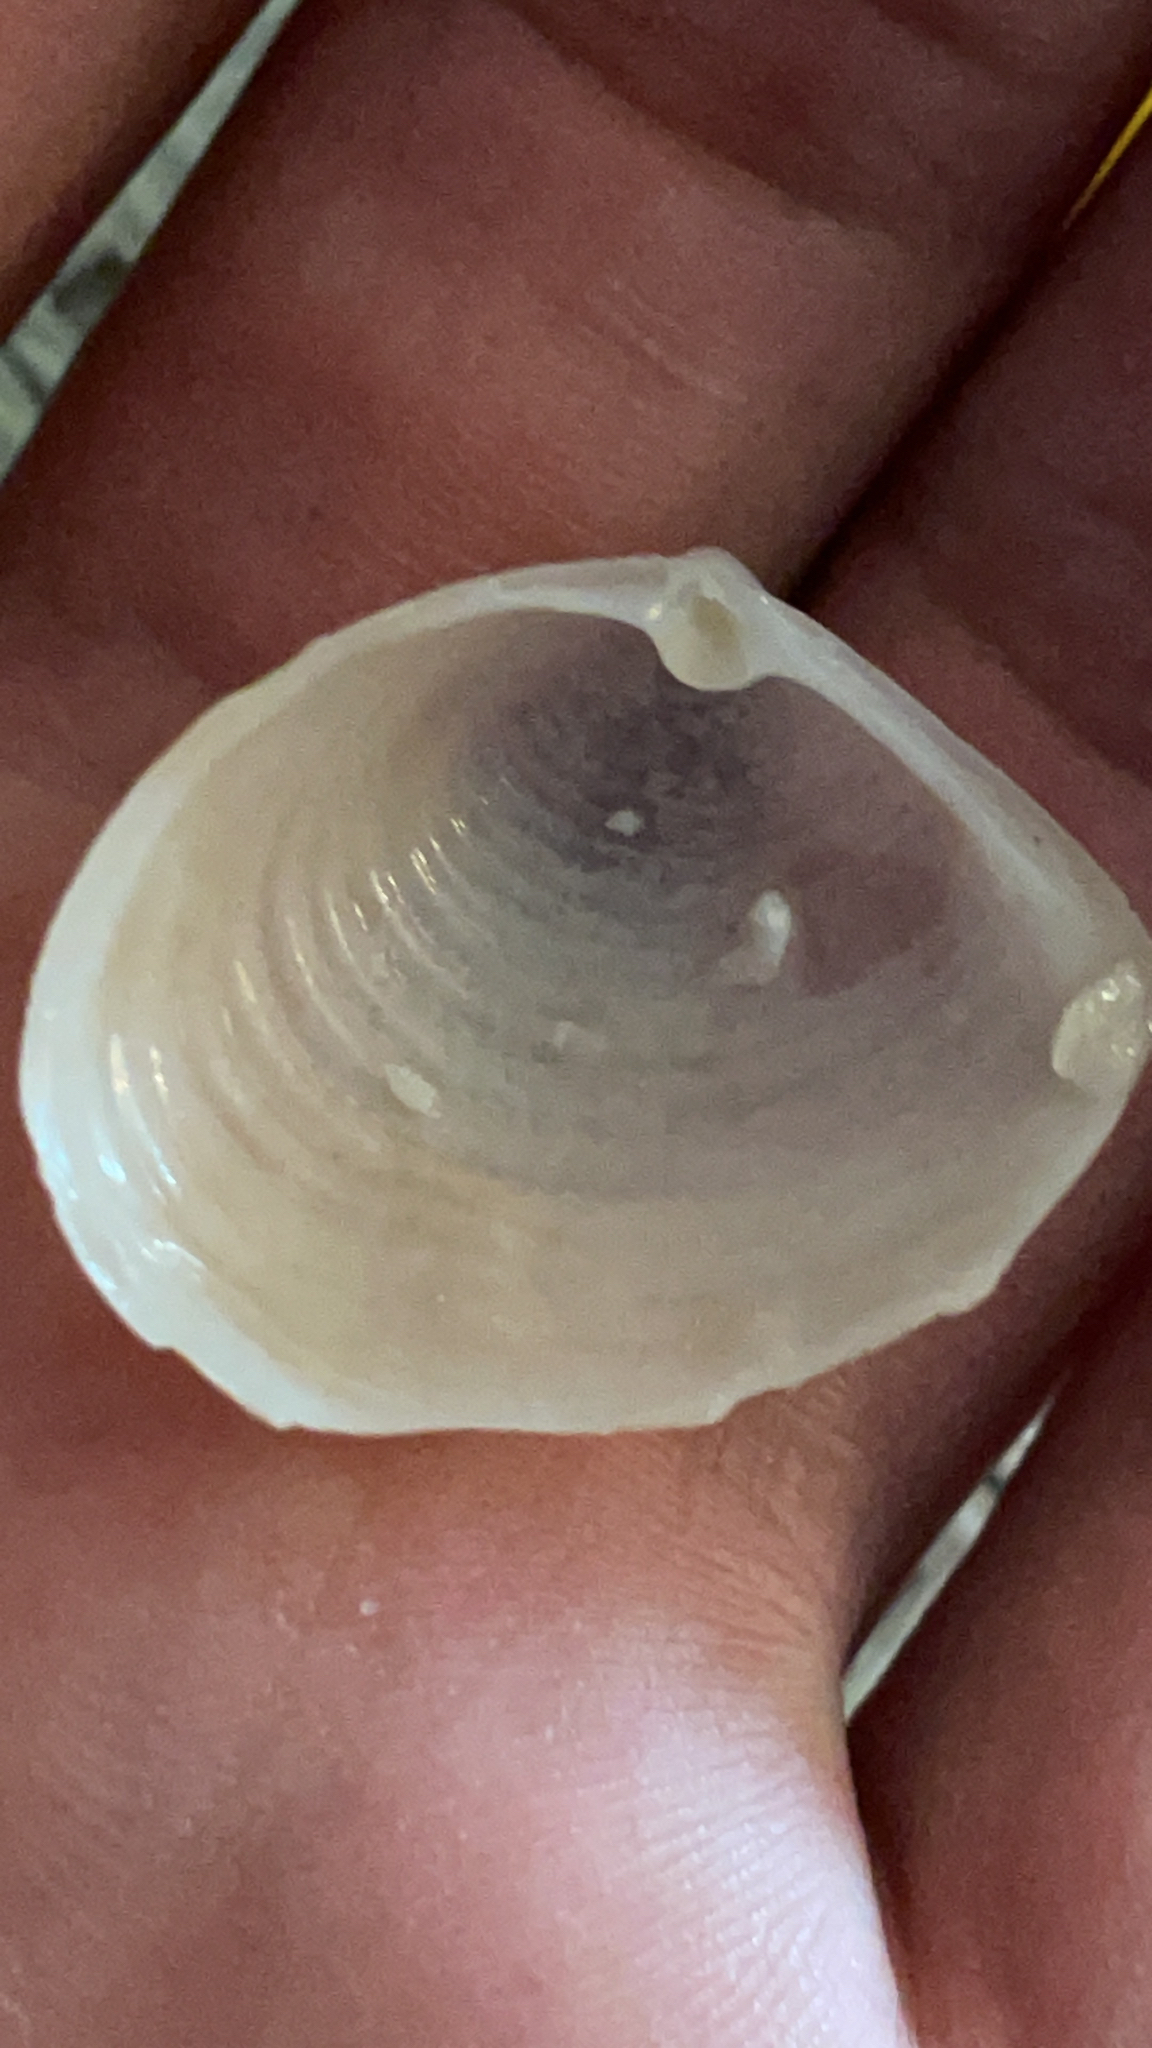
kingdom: Animalia
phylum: Mollusca
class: Bivalvia
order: Venerida
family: Anatinellidae
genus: Raeta
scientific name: Raeta plicatella
